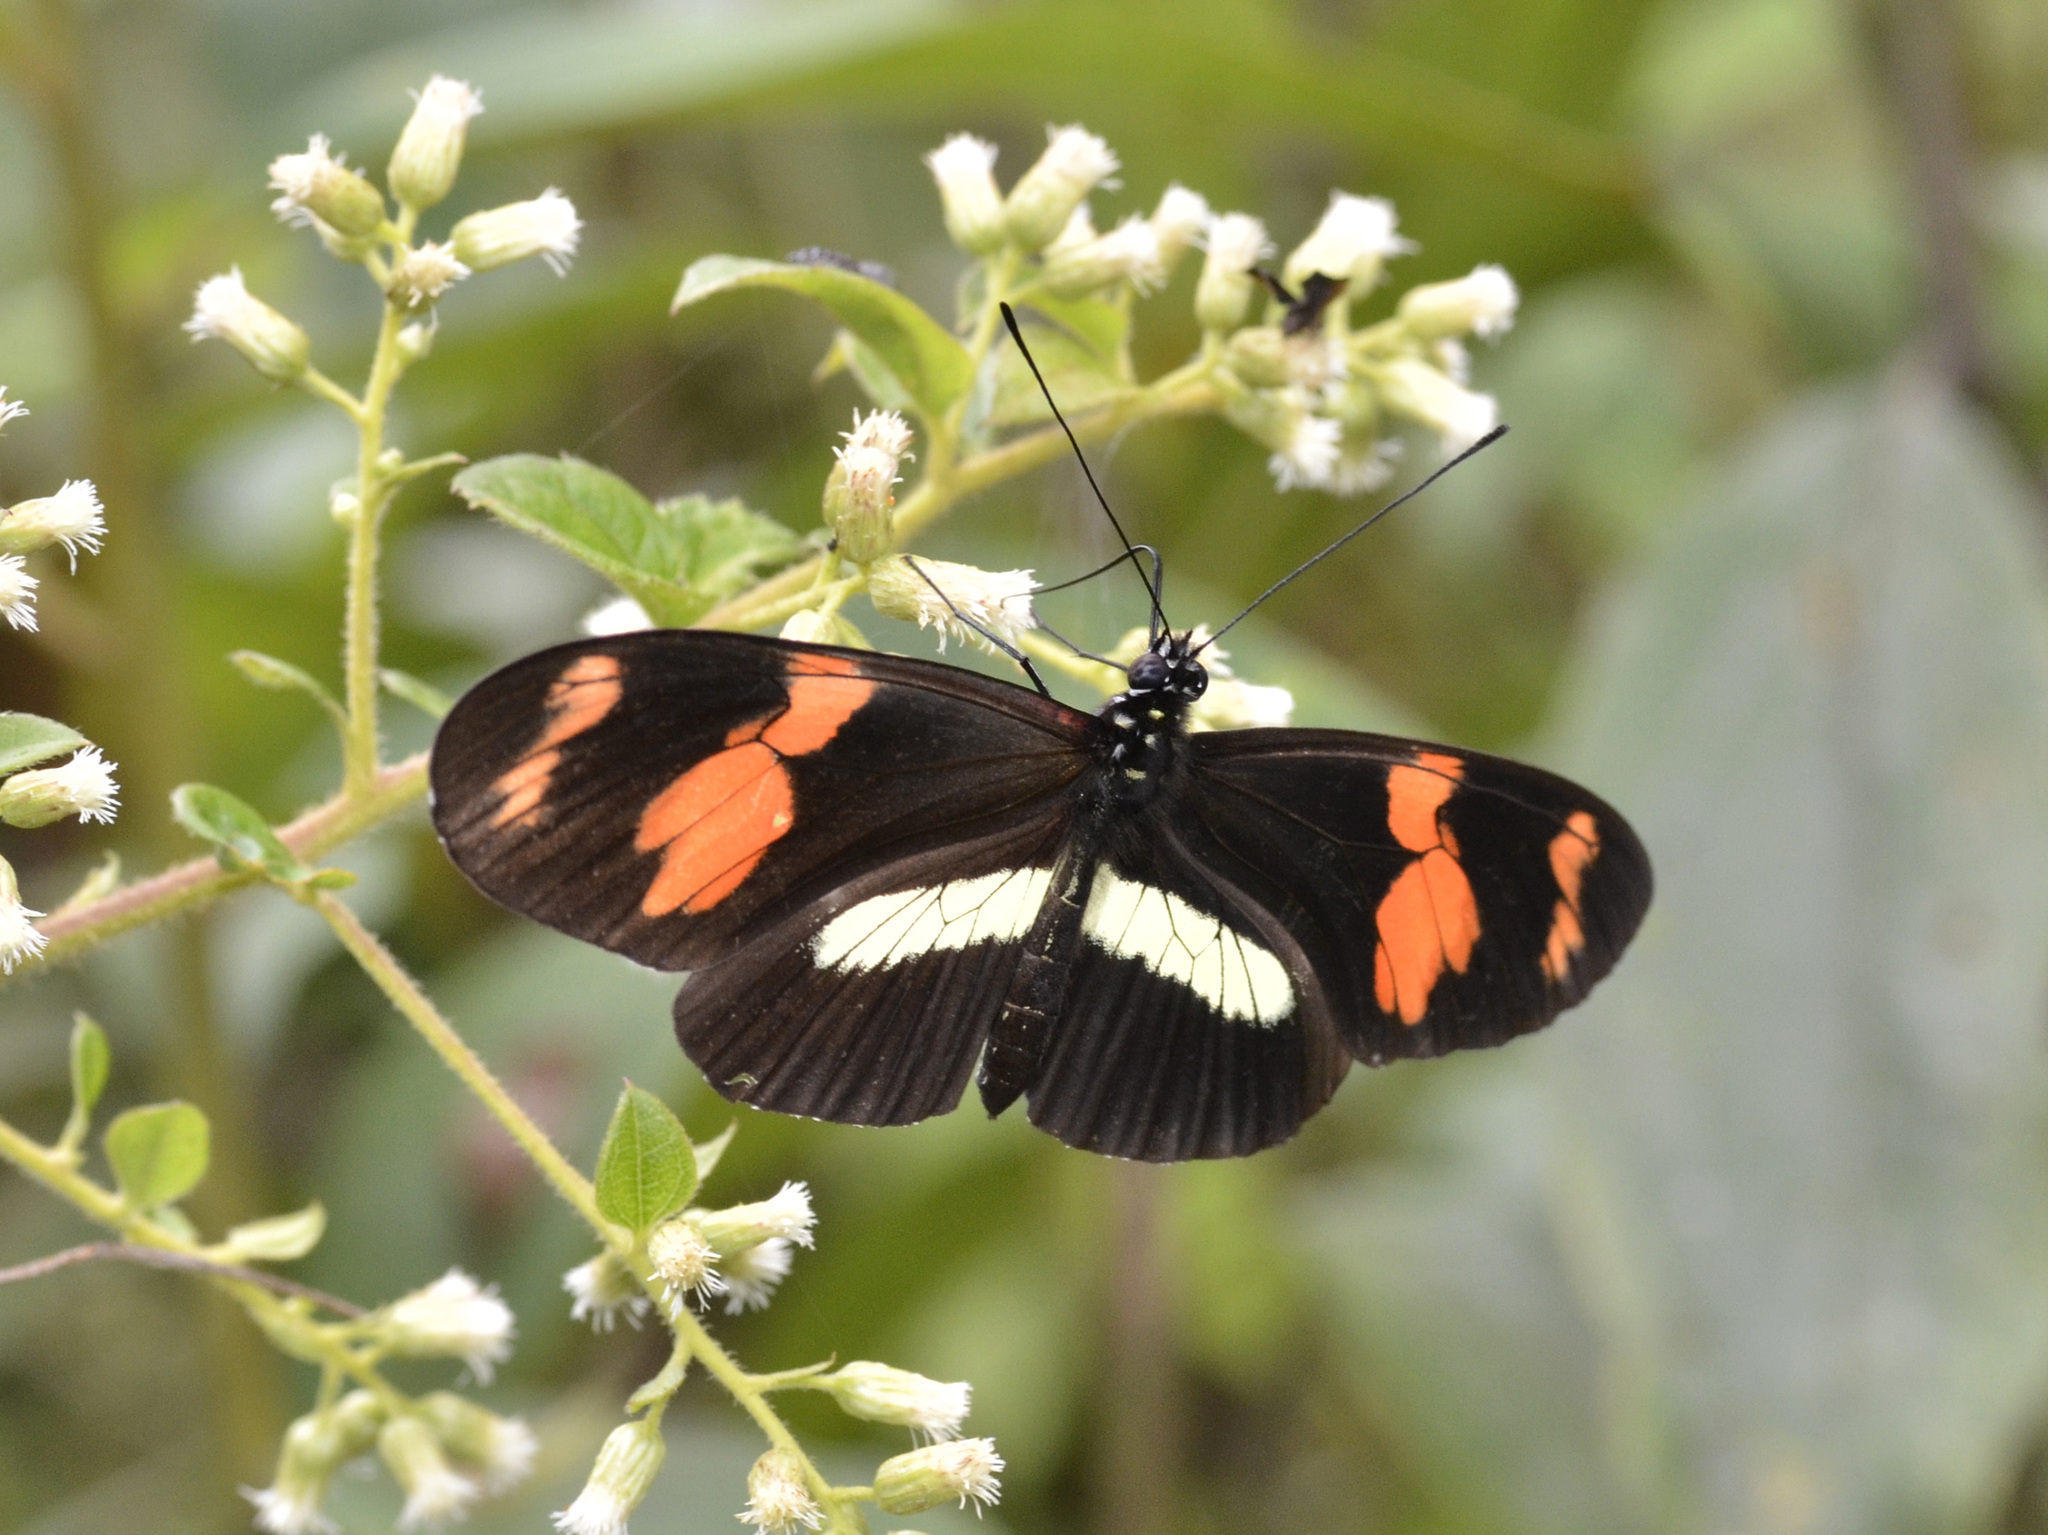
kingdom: Animalia
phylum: Arthropoda
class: Insecta
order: Lepidoptera
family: Nymphalidae
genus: Heliconius
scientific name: Heliconius telesiphe
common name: Telesiphe longwing
